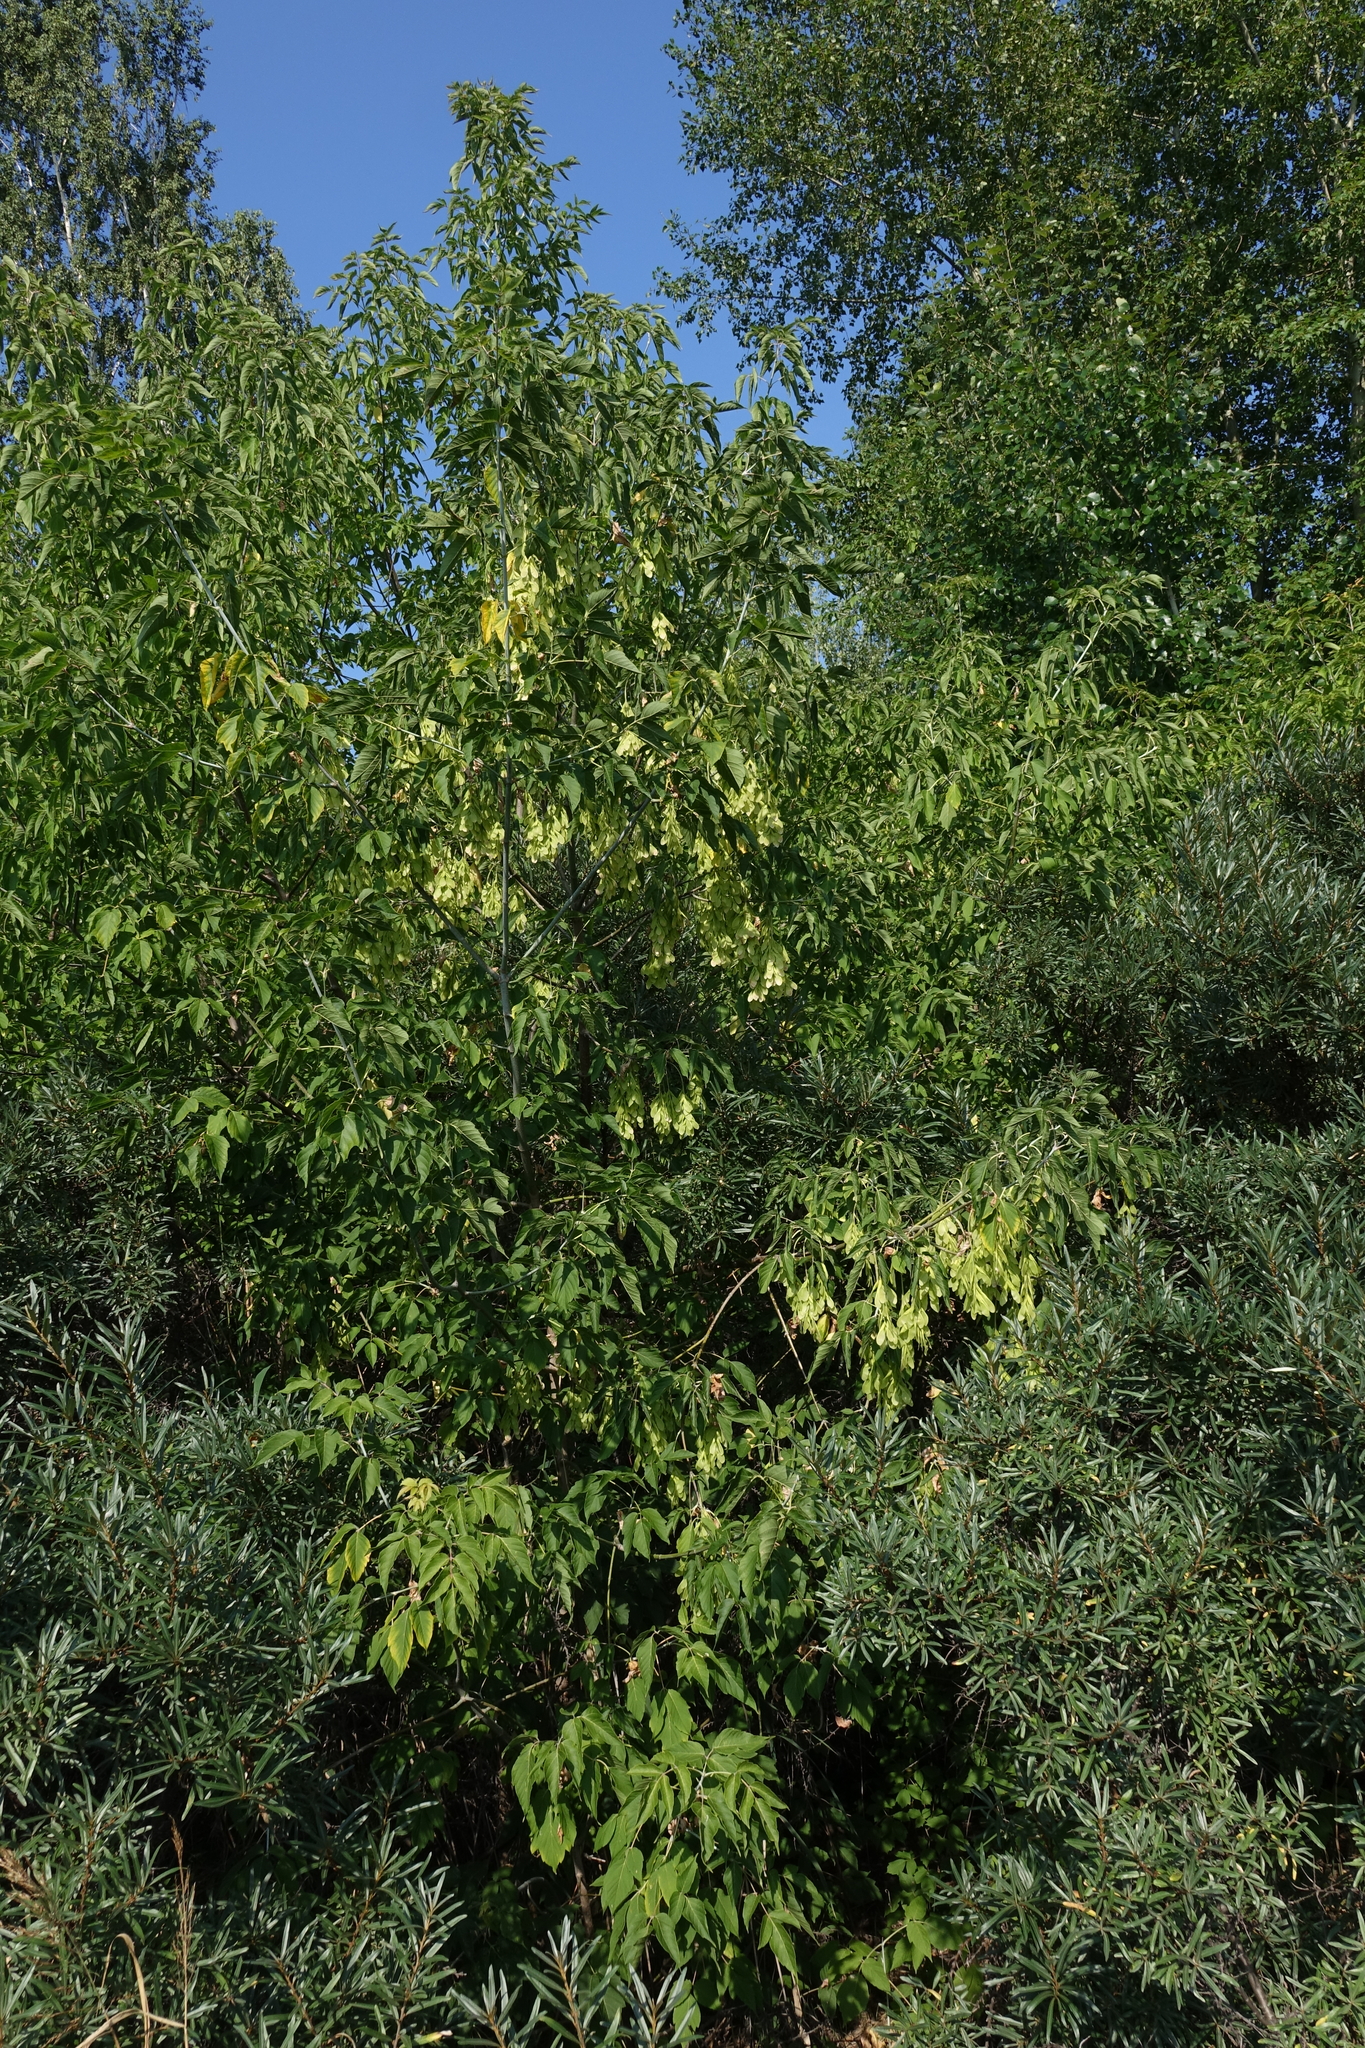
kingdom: Plantae
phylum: Tracheophyta
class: Magnoliopsida
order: Sapindales
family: Sapindaceae
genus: Acer
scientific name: Acer negundo
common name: Ashleaf maple
